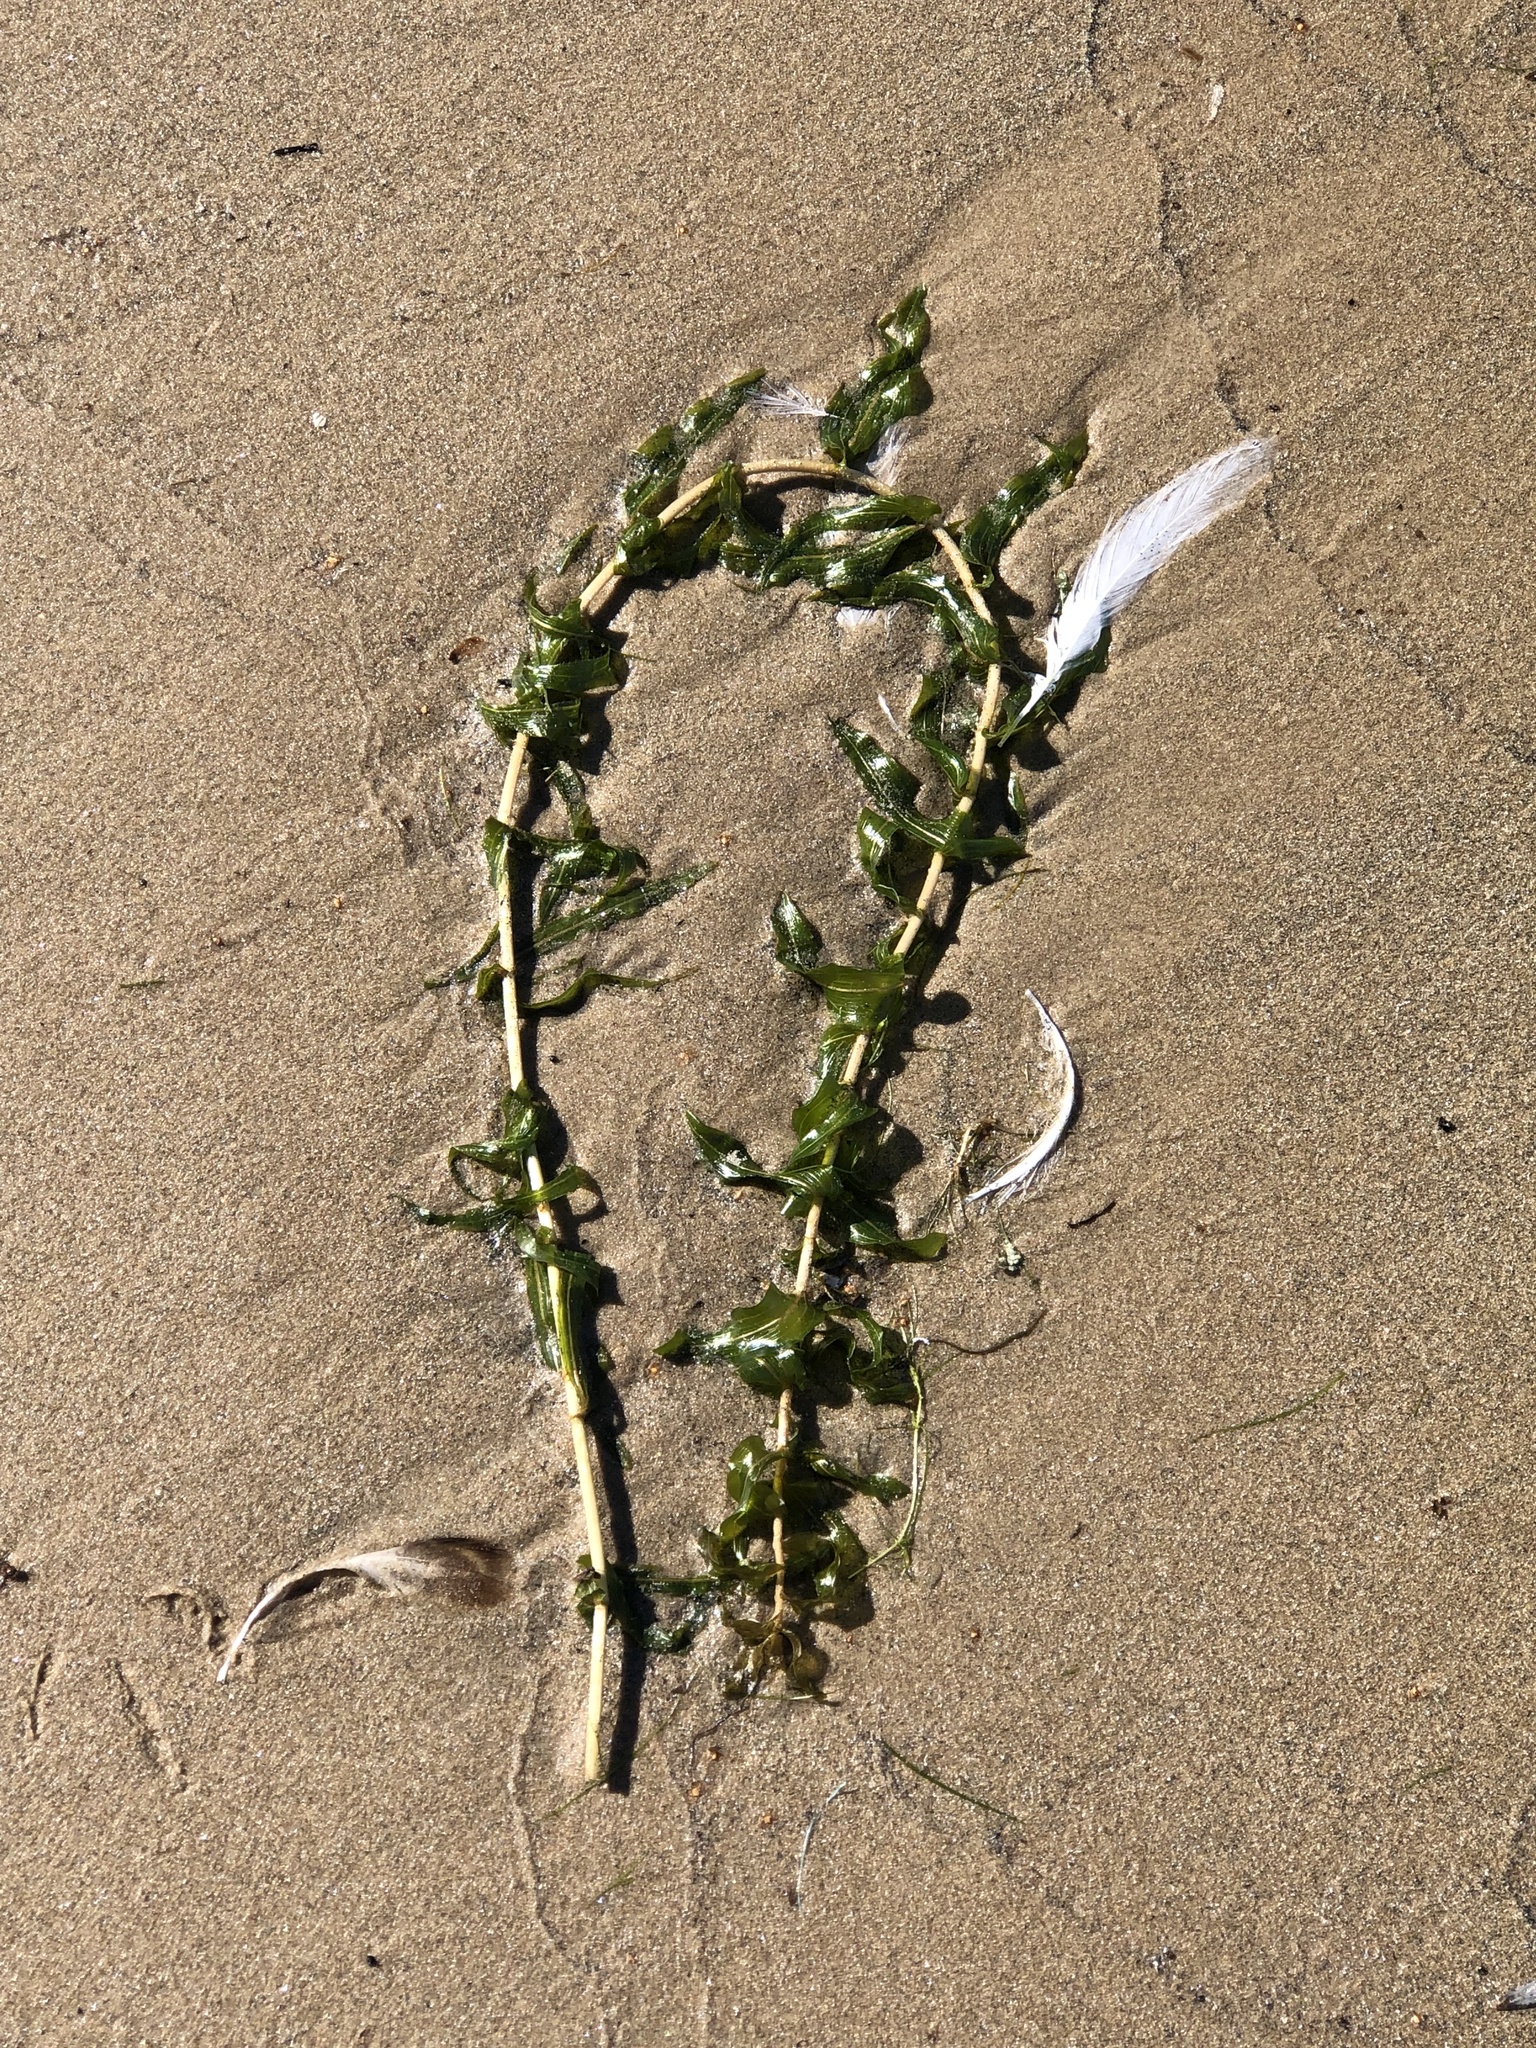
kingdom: Plantae
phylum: Tracheophyta
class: Liliopsida
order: Alismatales
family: Potamogetonaceae
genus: Potamogeton
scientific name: Potamogeton richardsonii
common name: Richardson's pondweed
